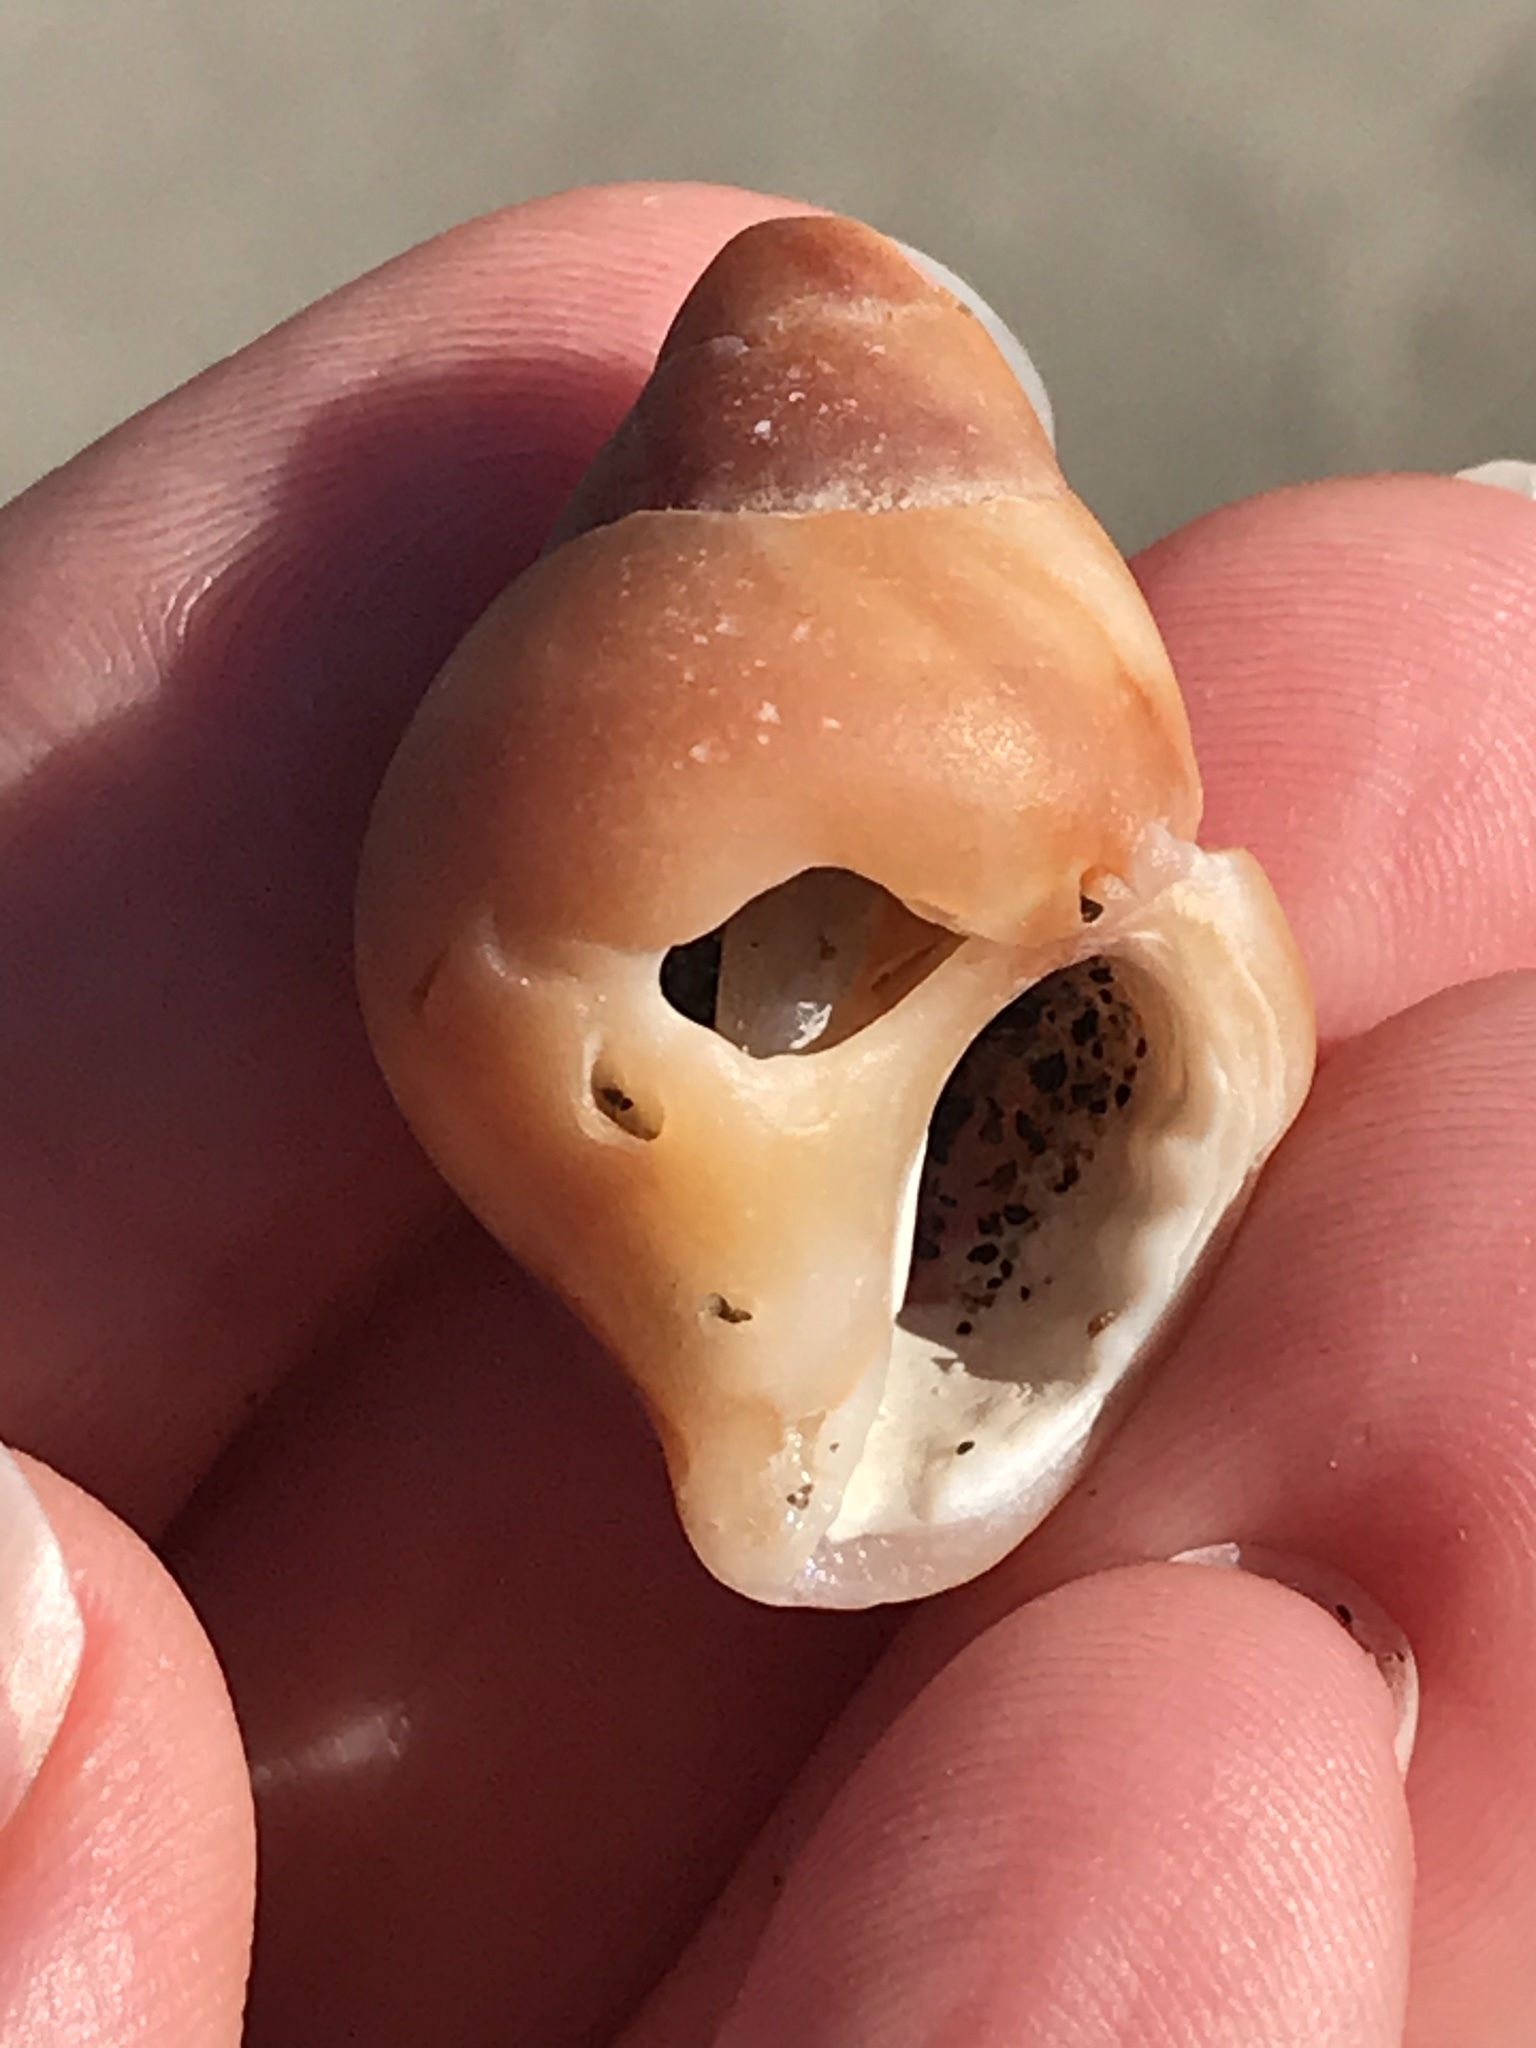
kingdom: Animalia
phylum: Mollusca
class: Gastropoda
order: Neogastropoda
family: Muricidae
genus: Nucella
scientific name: Nucella lamellosa
